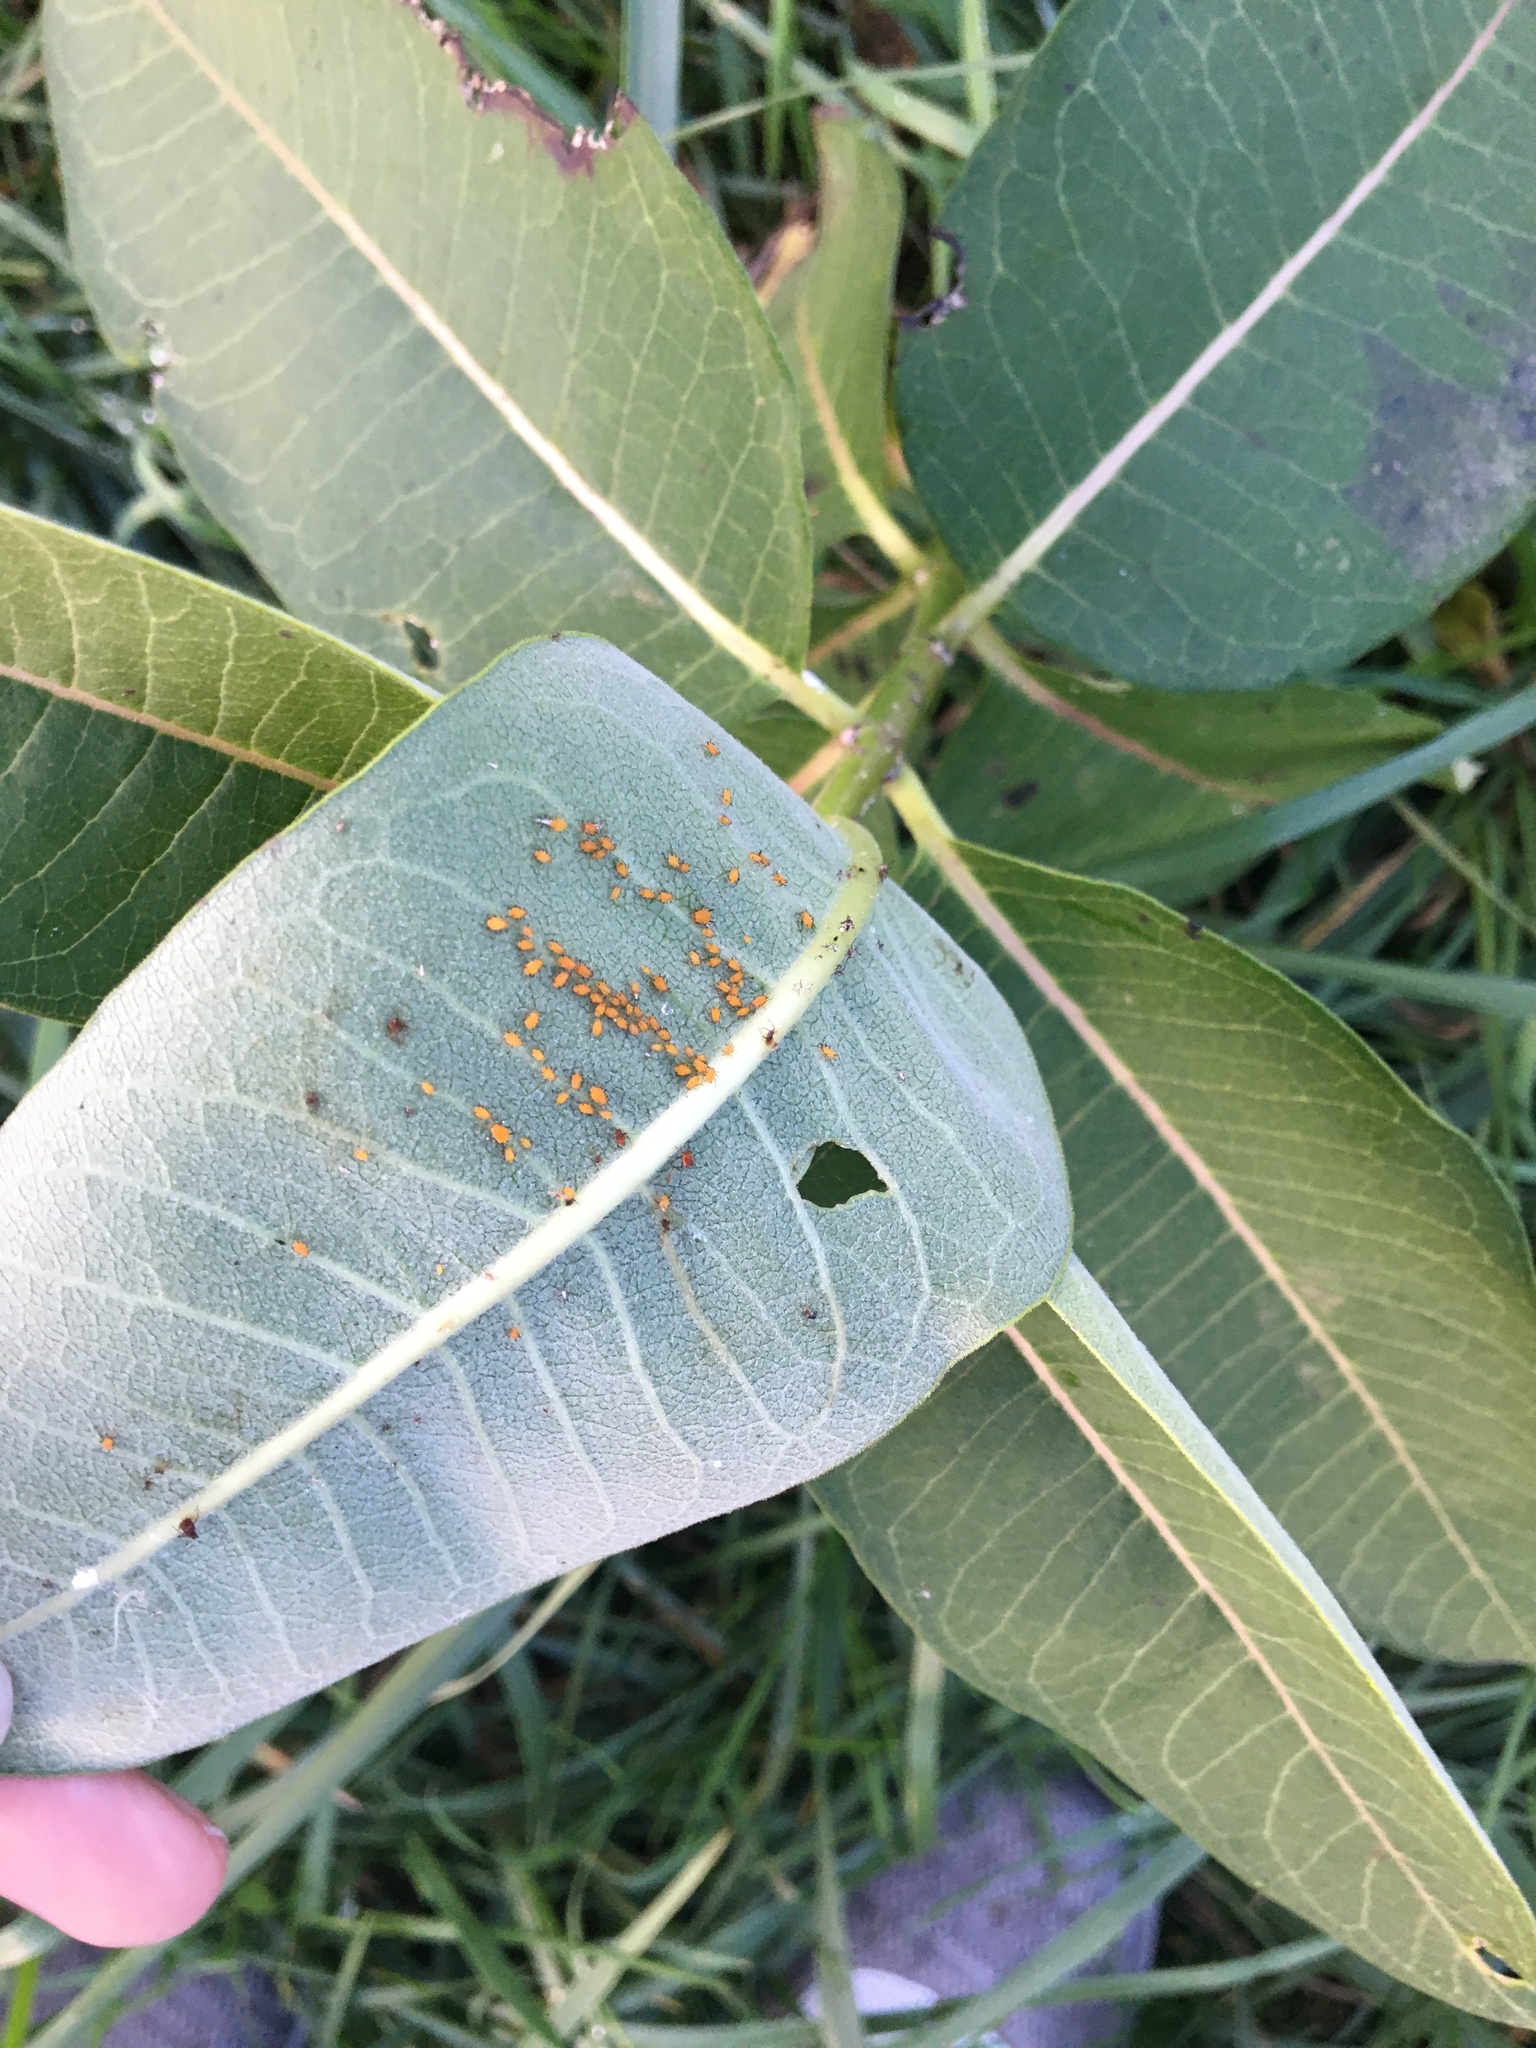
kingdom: Animalia
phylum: Arthropoda
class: Insecta
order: Hemiptera
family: Aphididae
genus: Aphis
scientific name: Aphis nerii
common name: Oleander aphid
